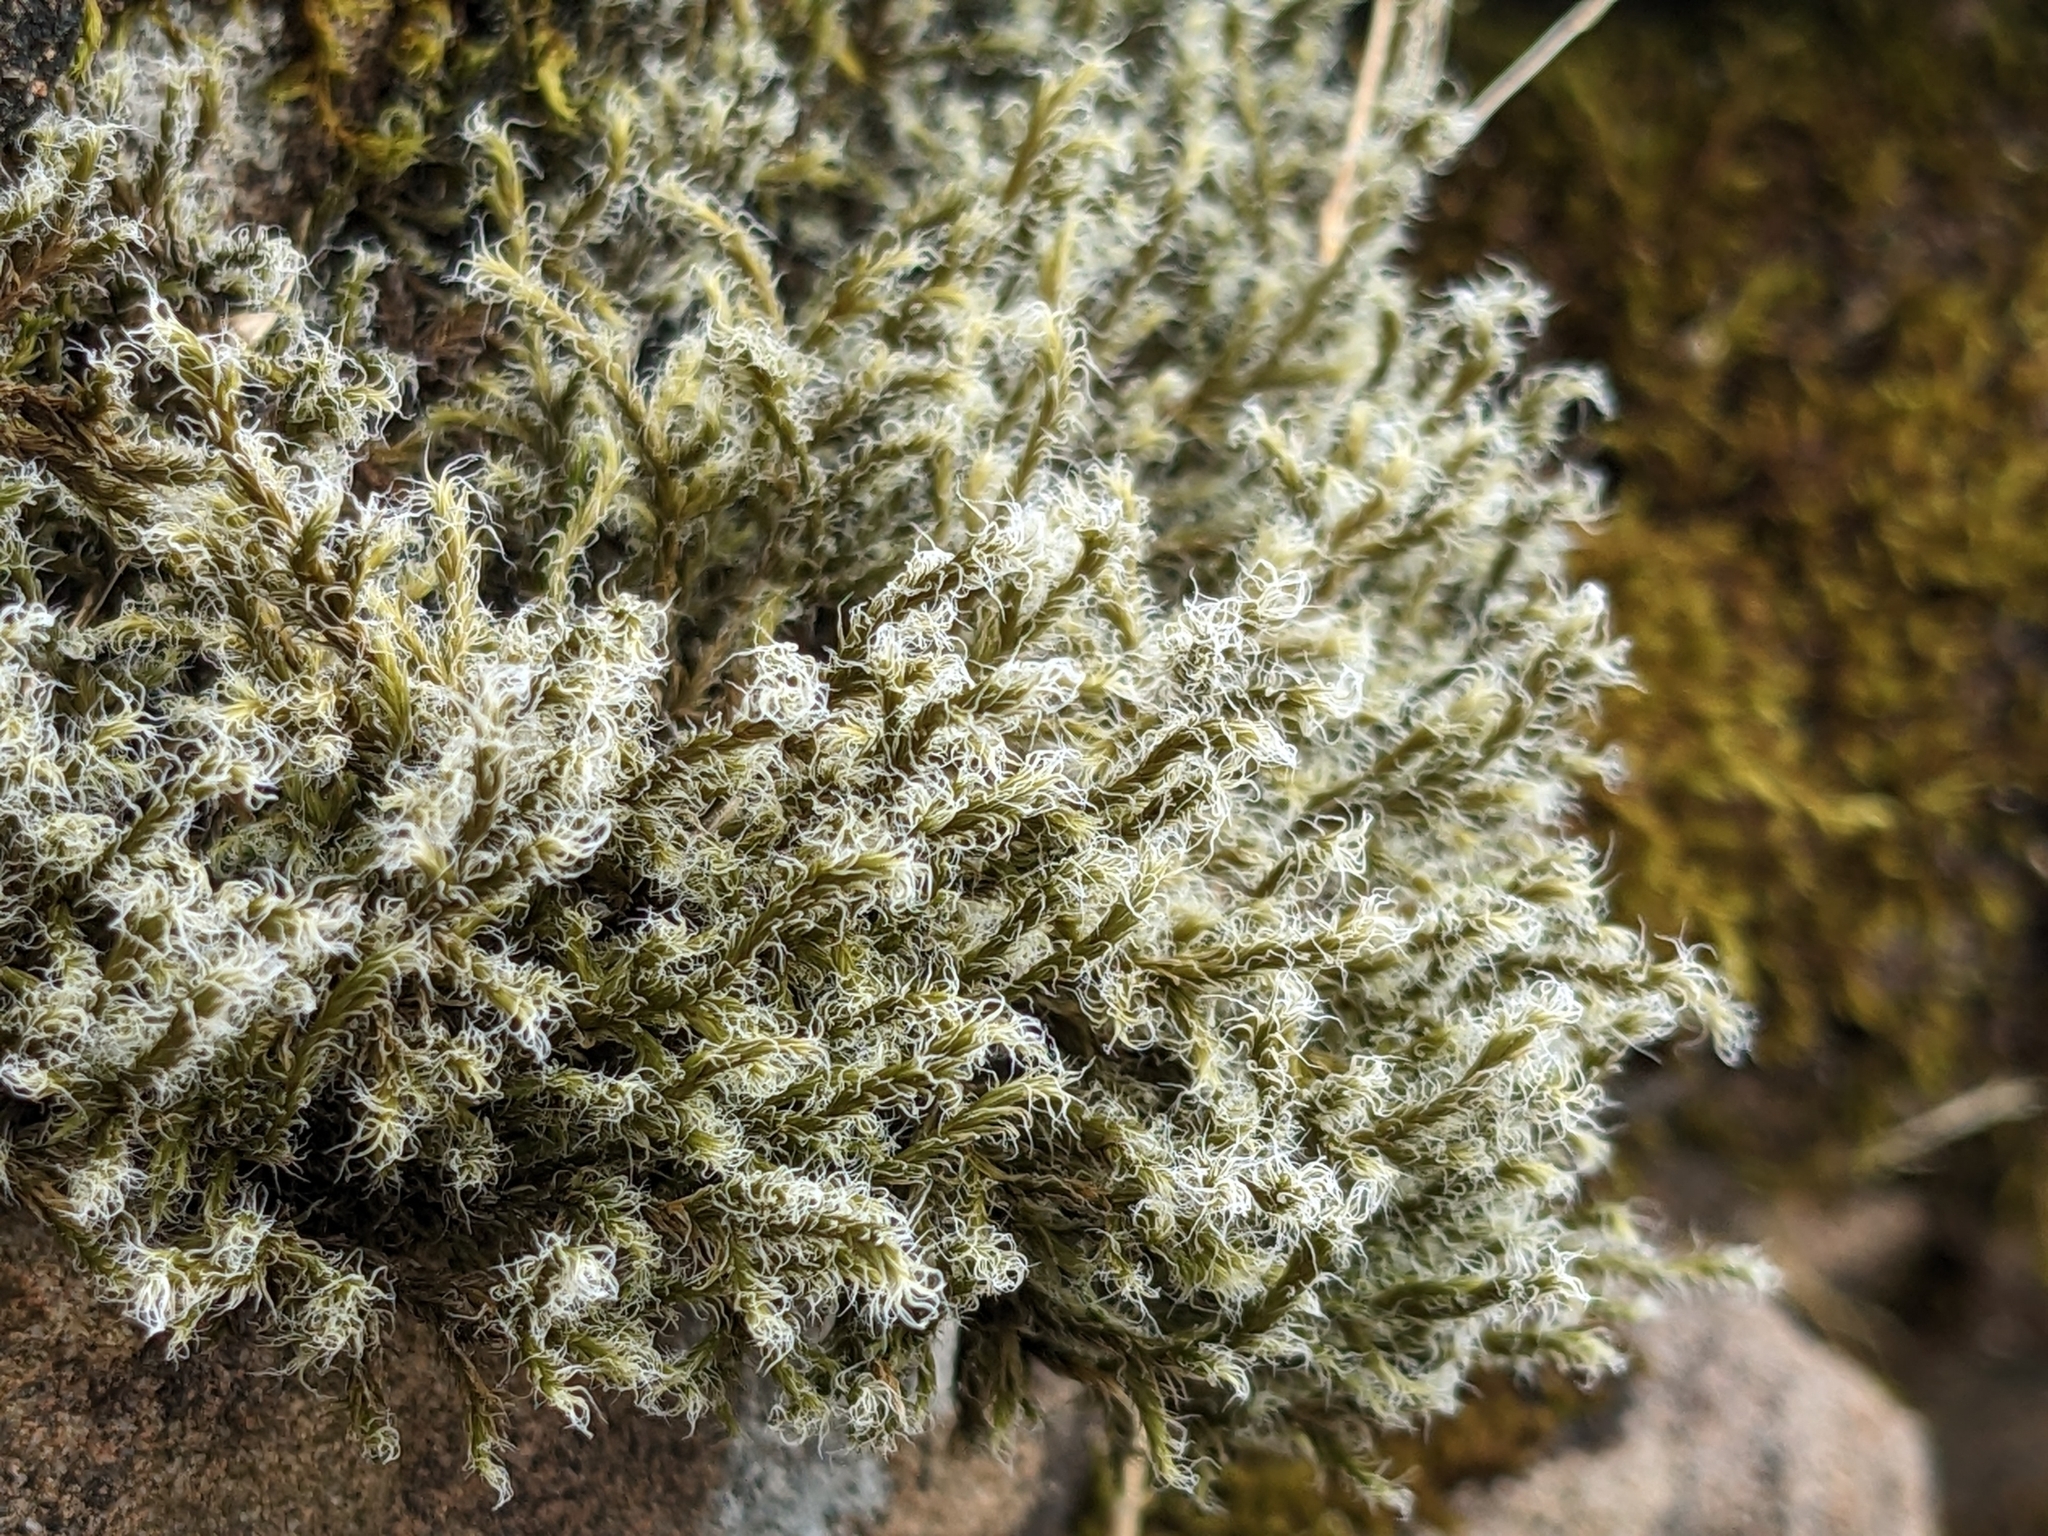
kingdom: Plantae
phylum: Bryophyta
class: Bryopsida
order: Grimmiales
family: Grimmiaceae
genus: Racomitrium
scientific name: Racomitrium lanuginosum
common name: Hoary rock moss
